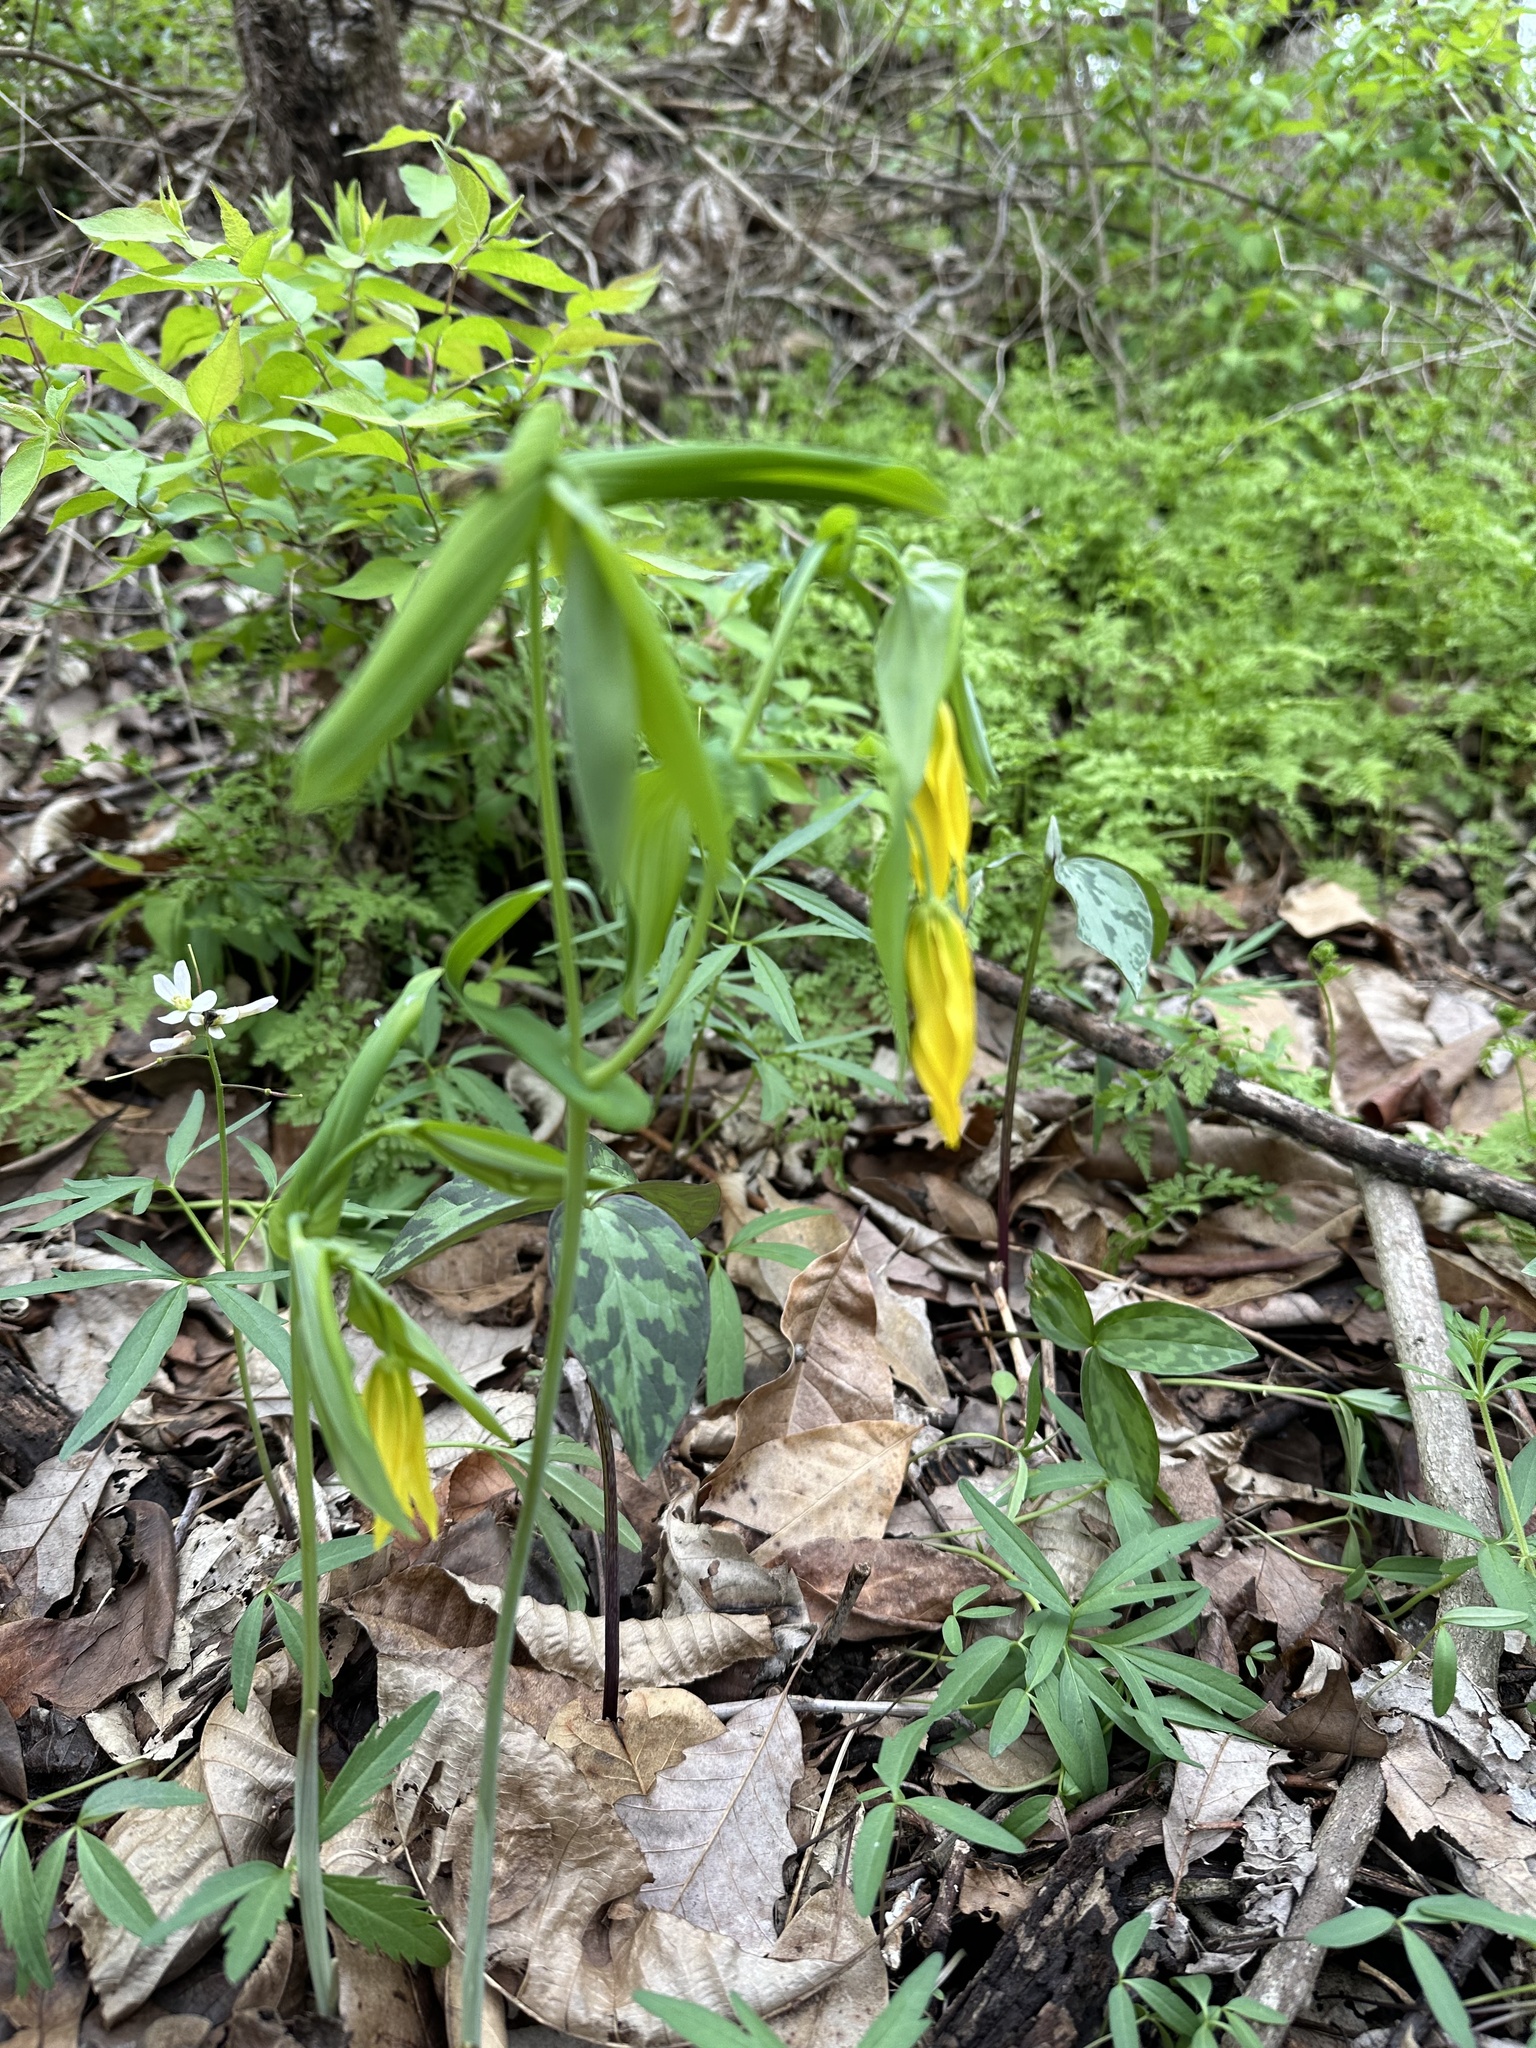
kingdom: Plantae
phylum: Tracheophyta
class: Liliopsida
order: Liliales
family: Colchicaceae
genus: Uvularia
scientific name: Uvularia grandiflora
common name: Bellwort
